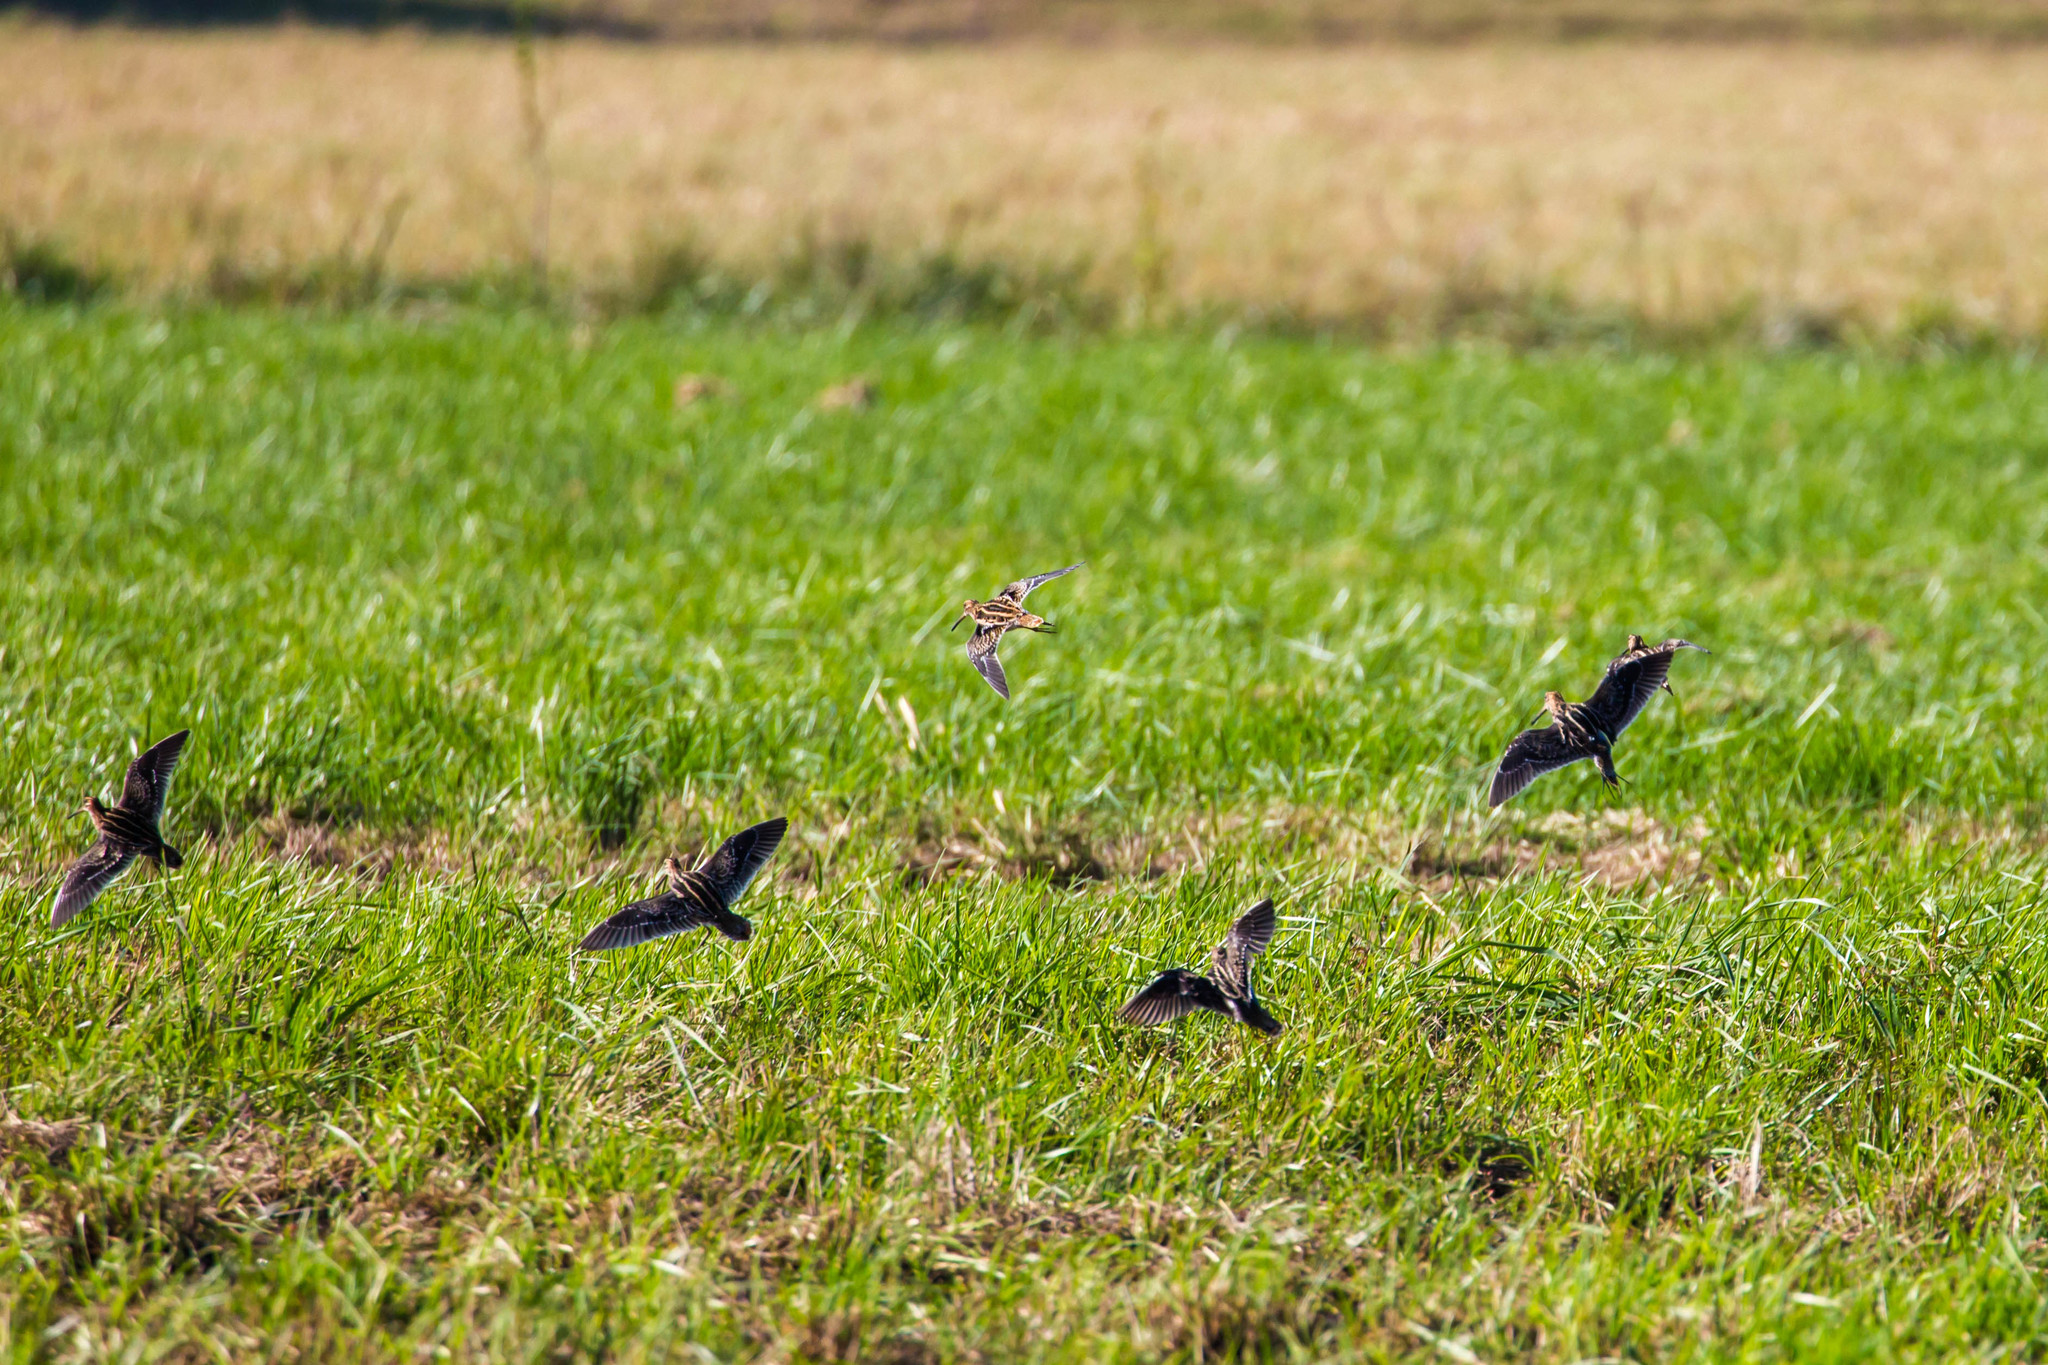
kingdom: Animalia
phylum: Chordata
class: Aves
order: Charadriiformes
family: Scolopacidae
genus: Gallinago
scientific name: Gallinago delicata
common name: Wilson's snipe
